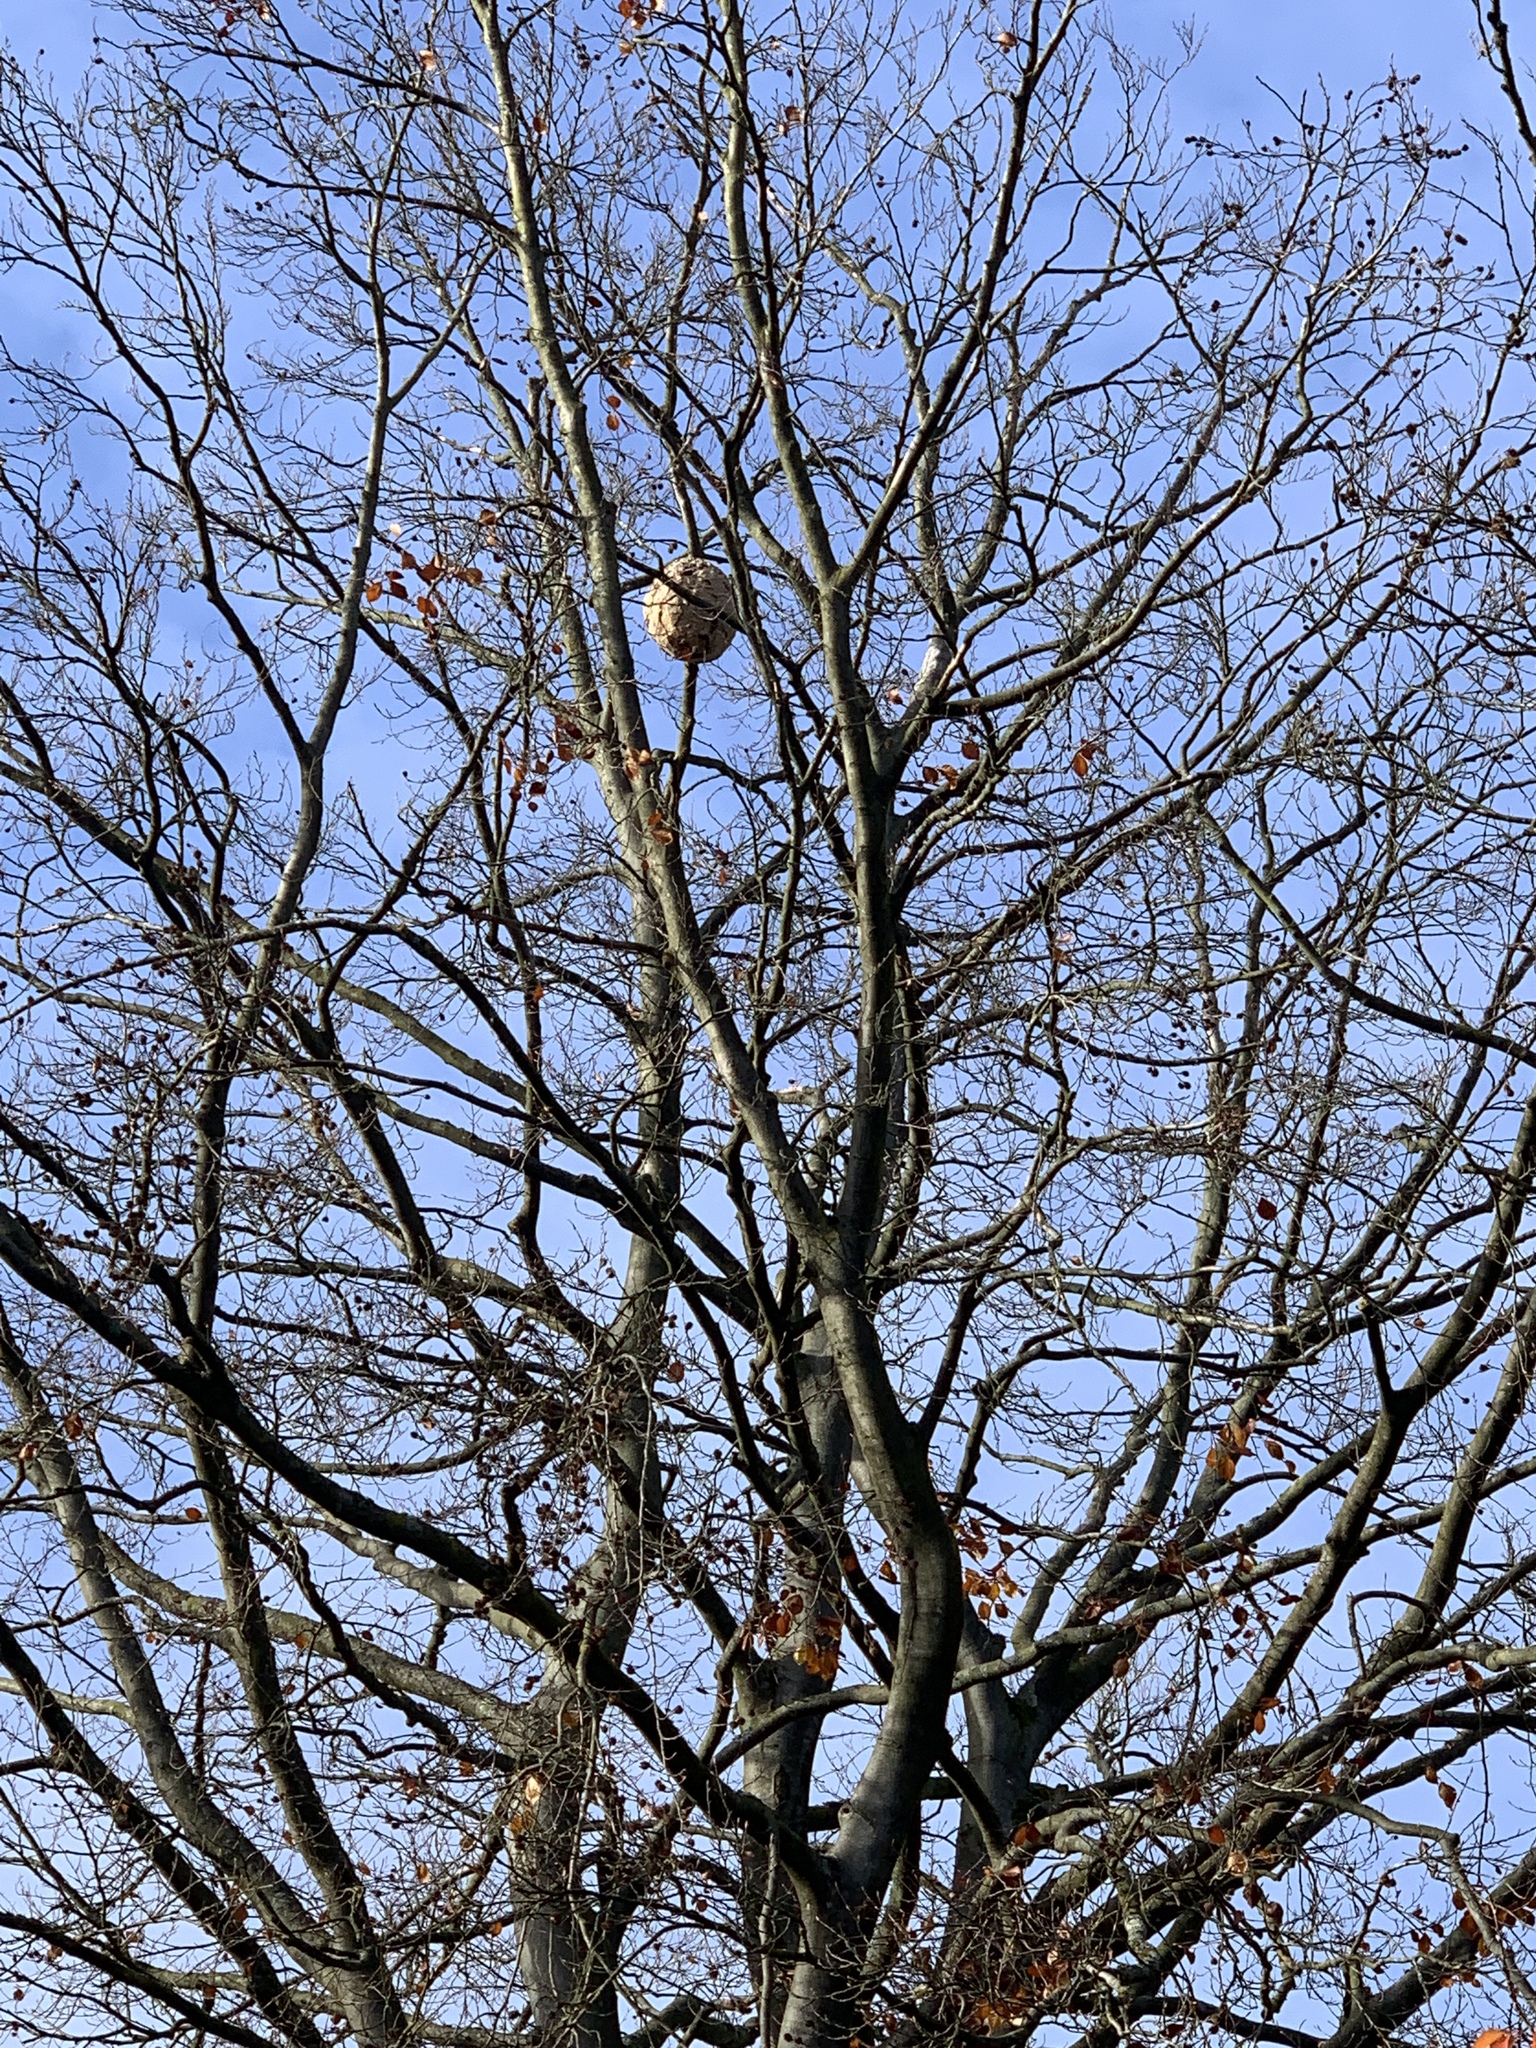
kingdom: Animalia
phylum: Arthropoda
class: Insecta
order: Hymenoptera
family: Vespidae
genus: Vespa
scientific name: Vespa velutina
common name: Asian hornet
